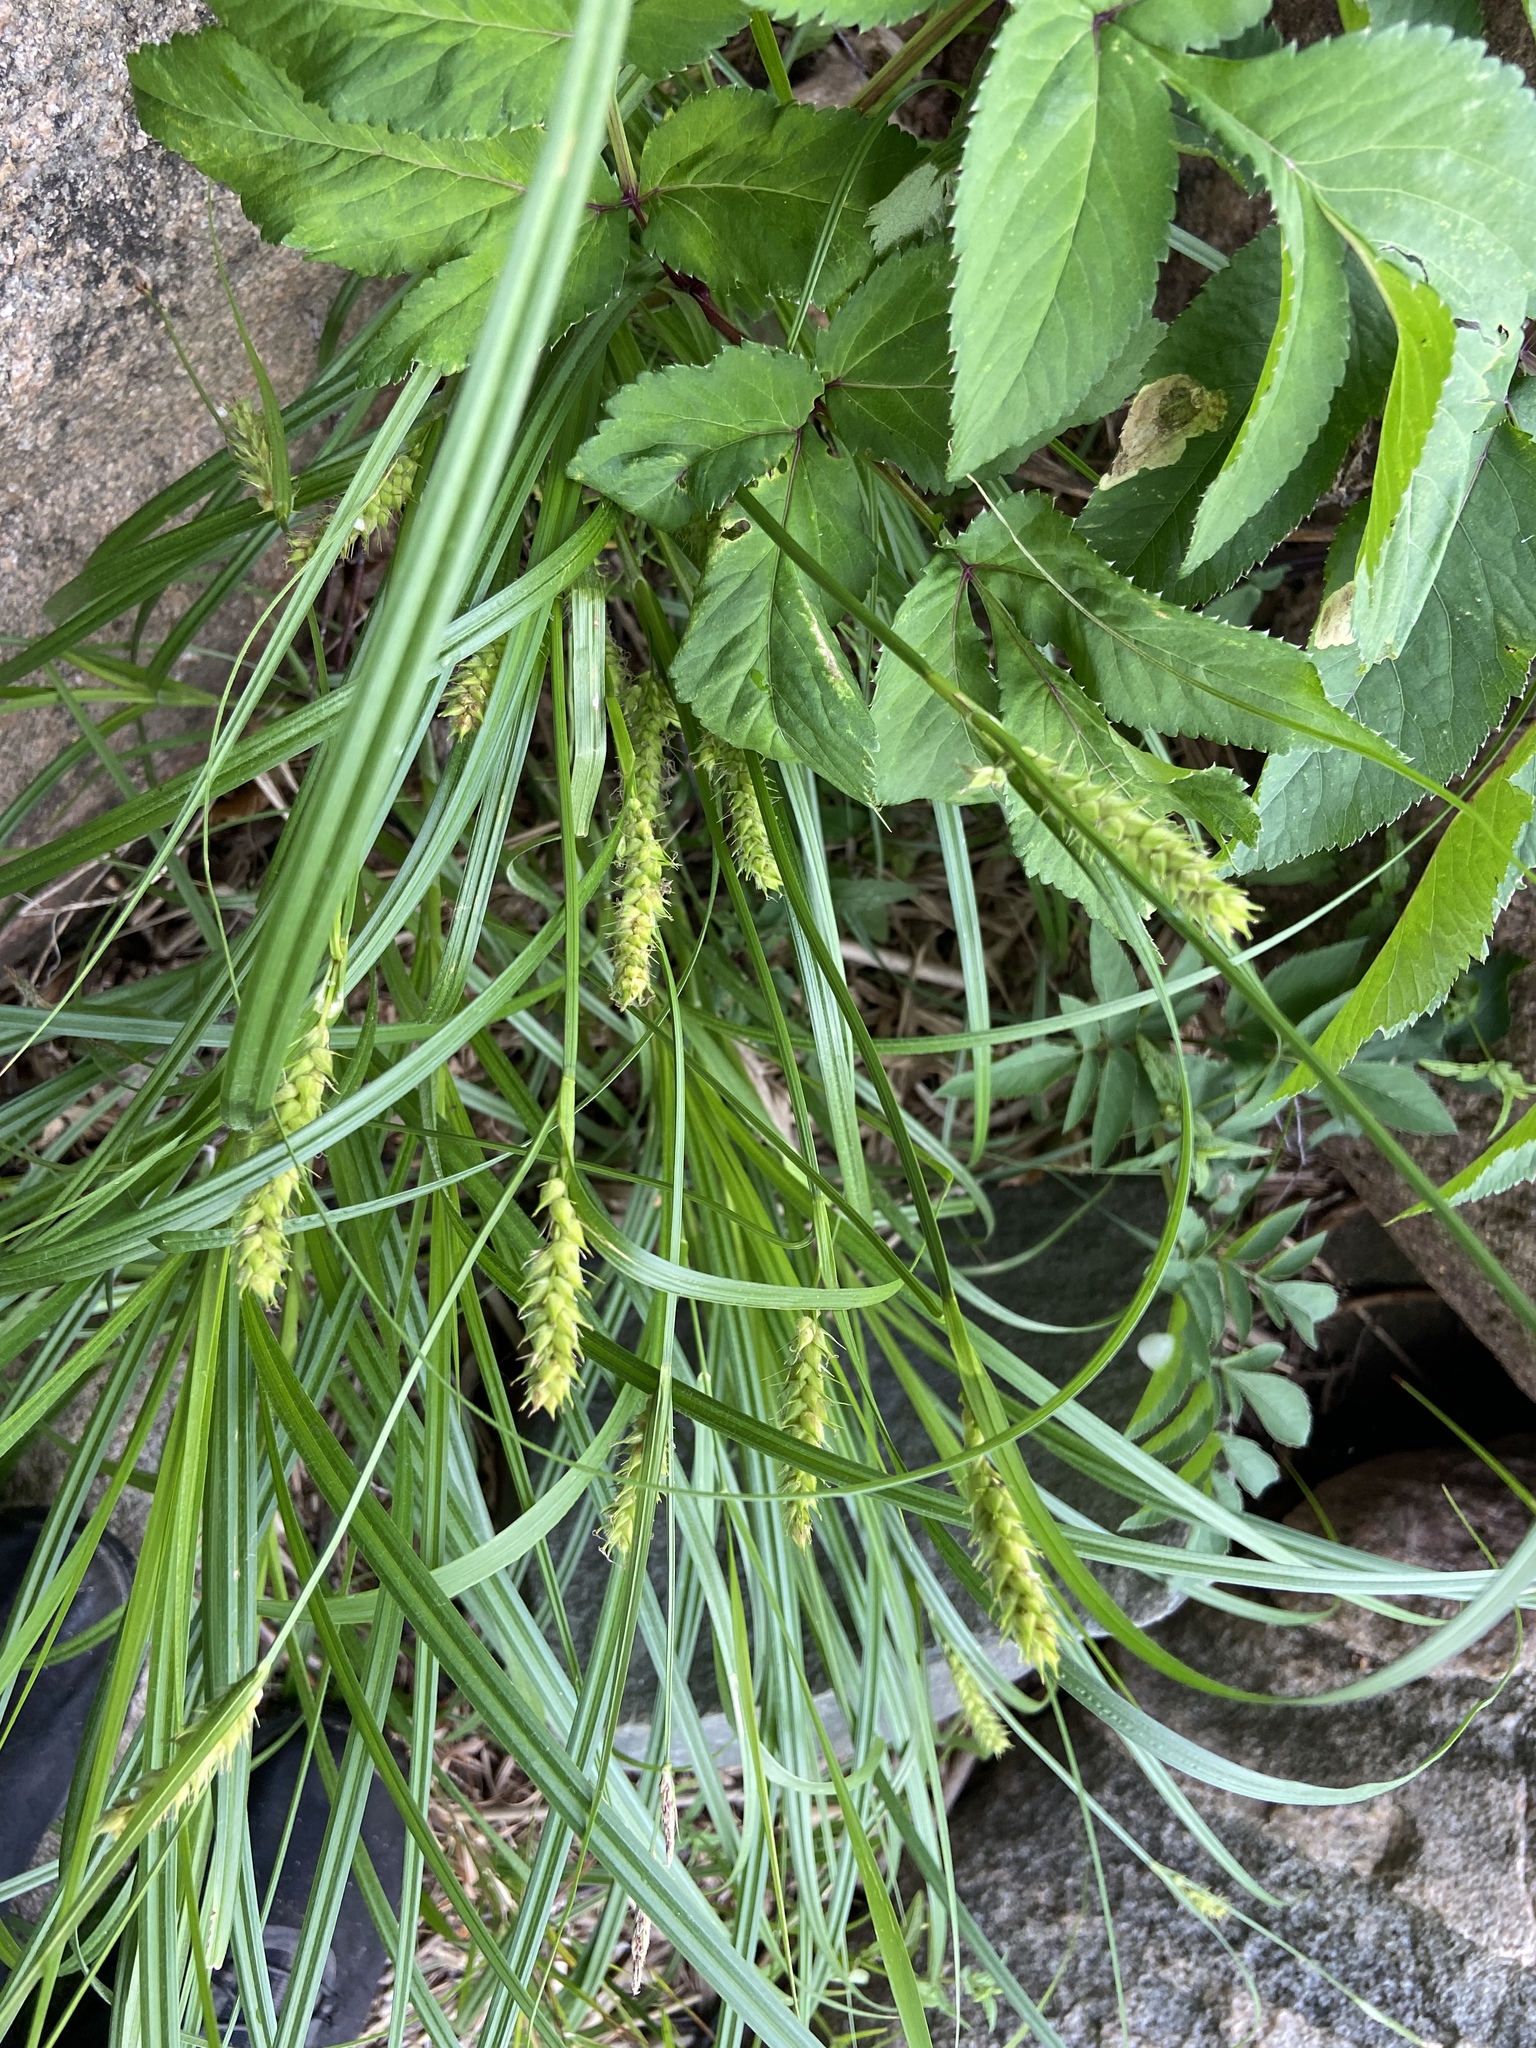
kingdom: Plantae
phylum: Tracheophyta
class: Liliopsida
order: Poales
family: Cyperaceae
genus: Carex
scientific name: Carex hirta
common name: Hairy sedge
